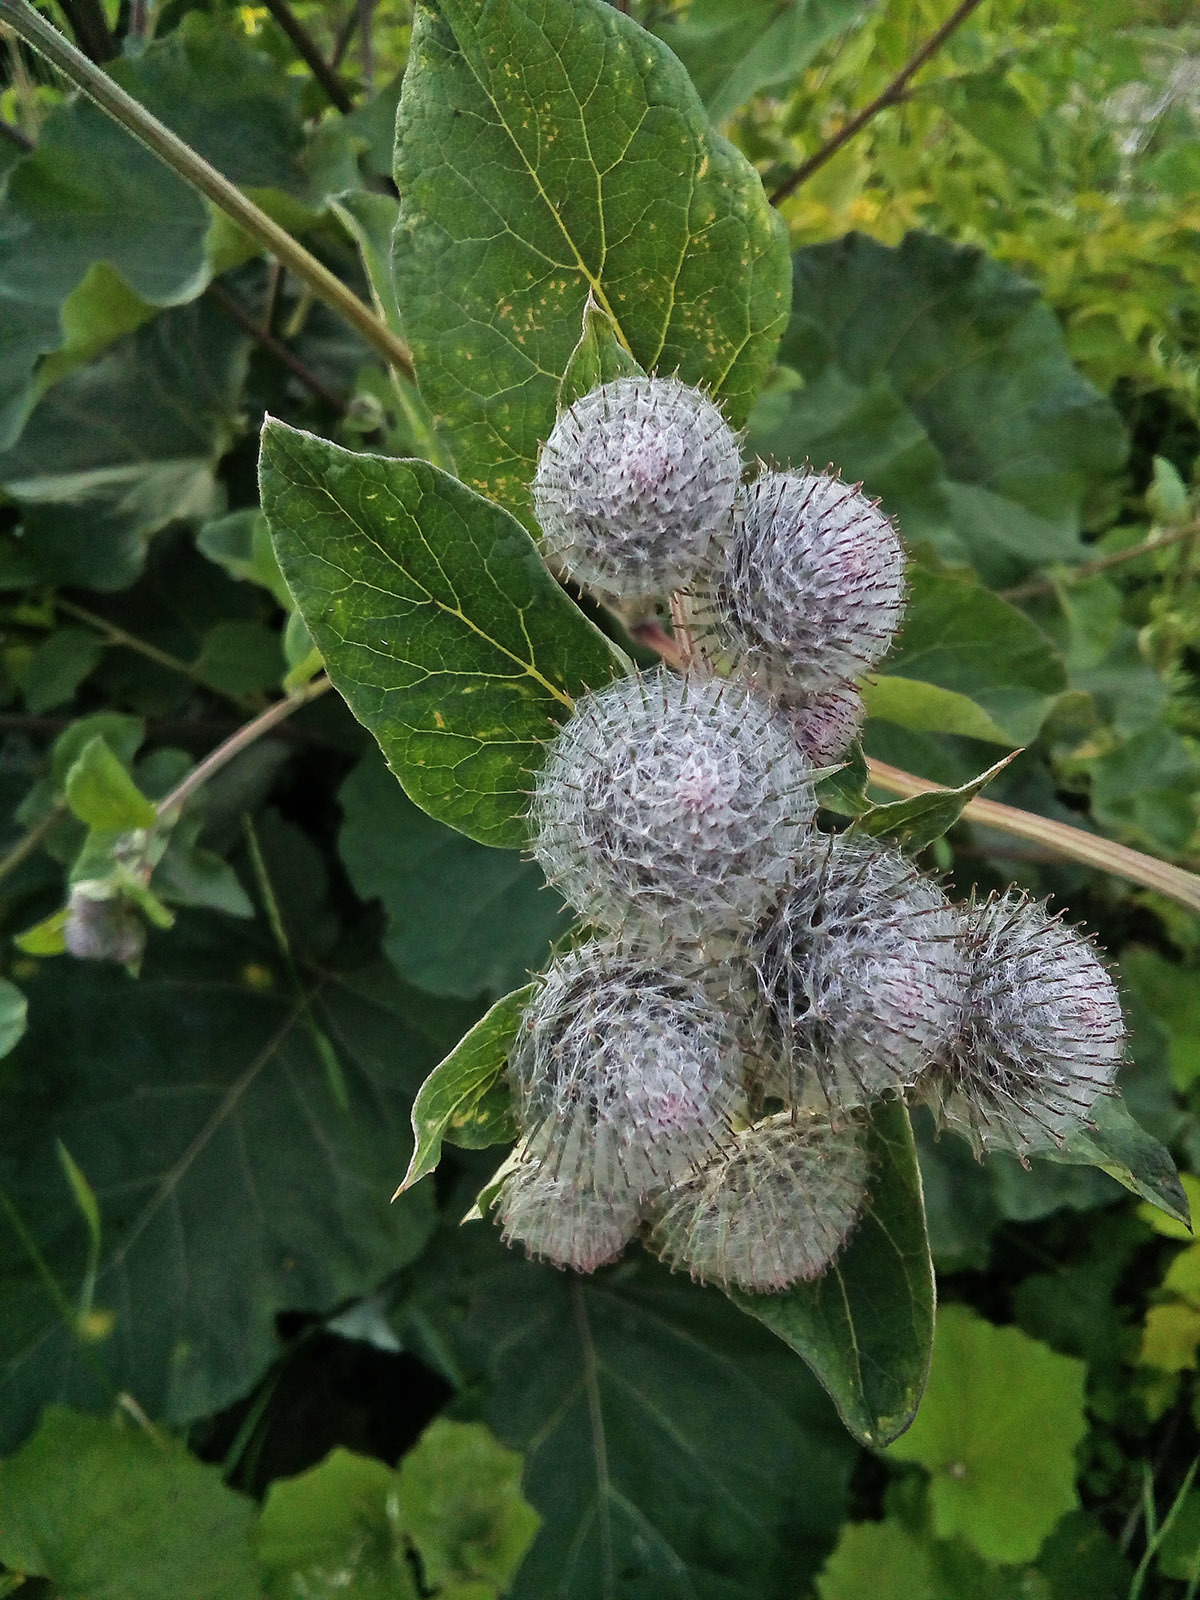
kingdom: Plantae
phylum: Tracheophyta
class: Magnoliopsida
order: Asterales
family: Asteraceae
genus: Arctium
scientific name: Arctium tomentosum
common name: Woolly burdock
